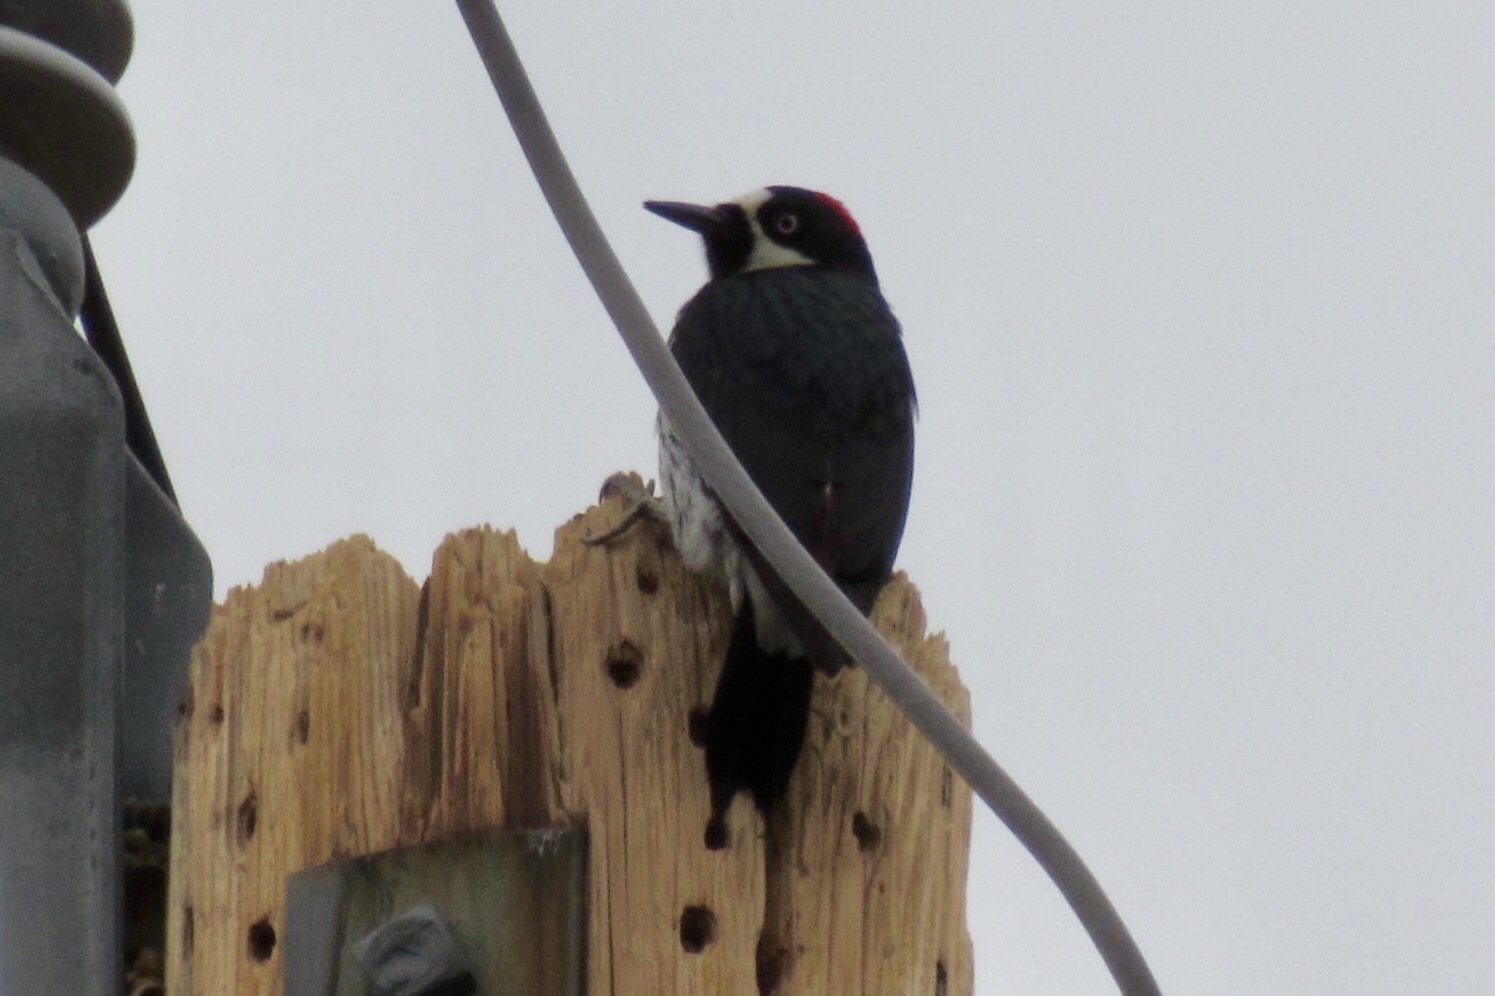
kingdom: Animalia
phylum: Chordata
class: Aves
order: Piciformes
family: Picidae
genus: Melanerpes
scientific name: Melanerpes formicivorus
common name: Acorn woodpecker
